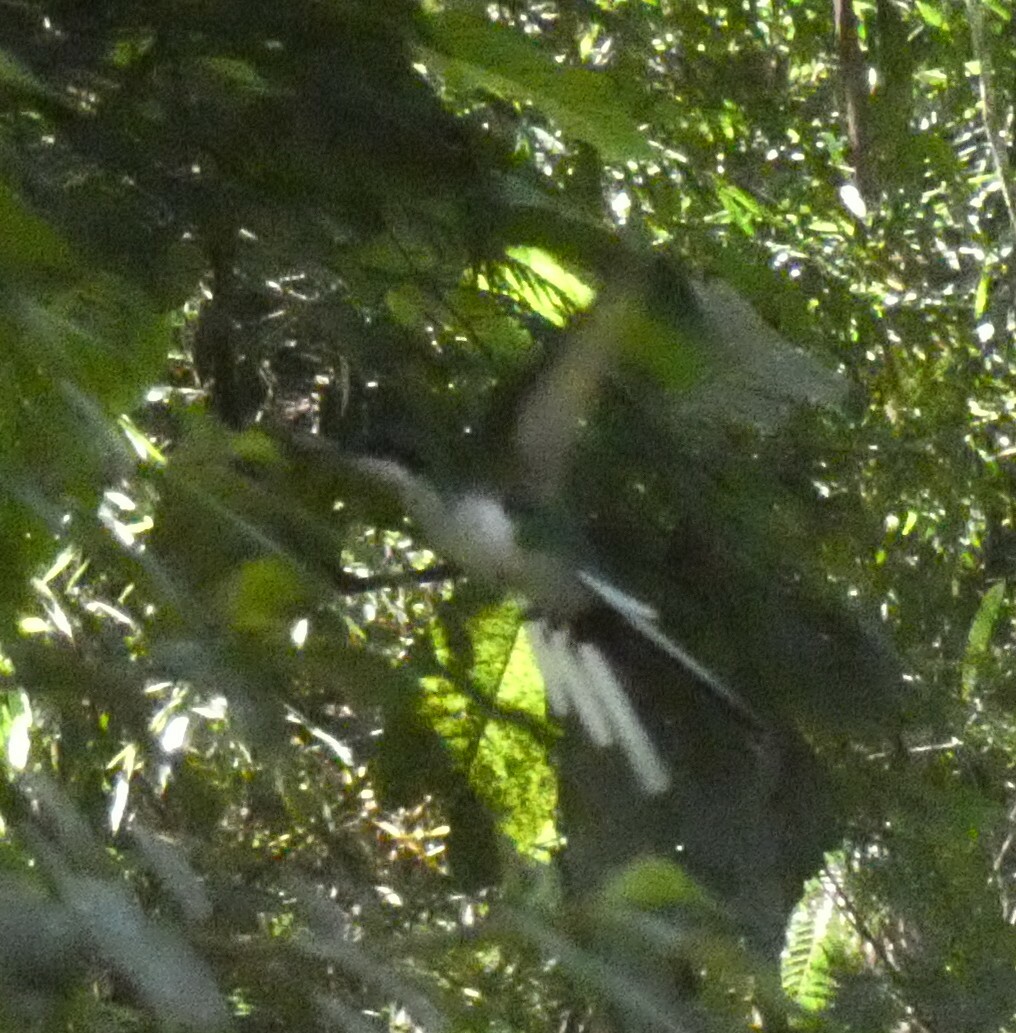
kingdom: Animalia
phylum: Chordata
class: Aves
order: Apodiformes
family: Trochilidae
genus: Heliothryx
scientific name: Heliothryx auritus
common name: Black-eared fairy
